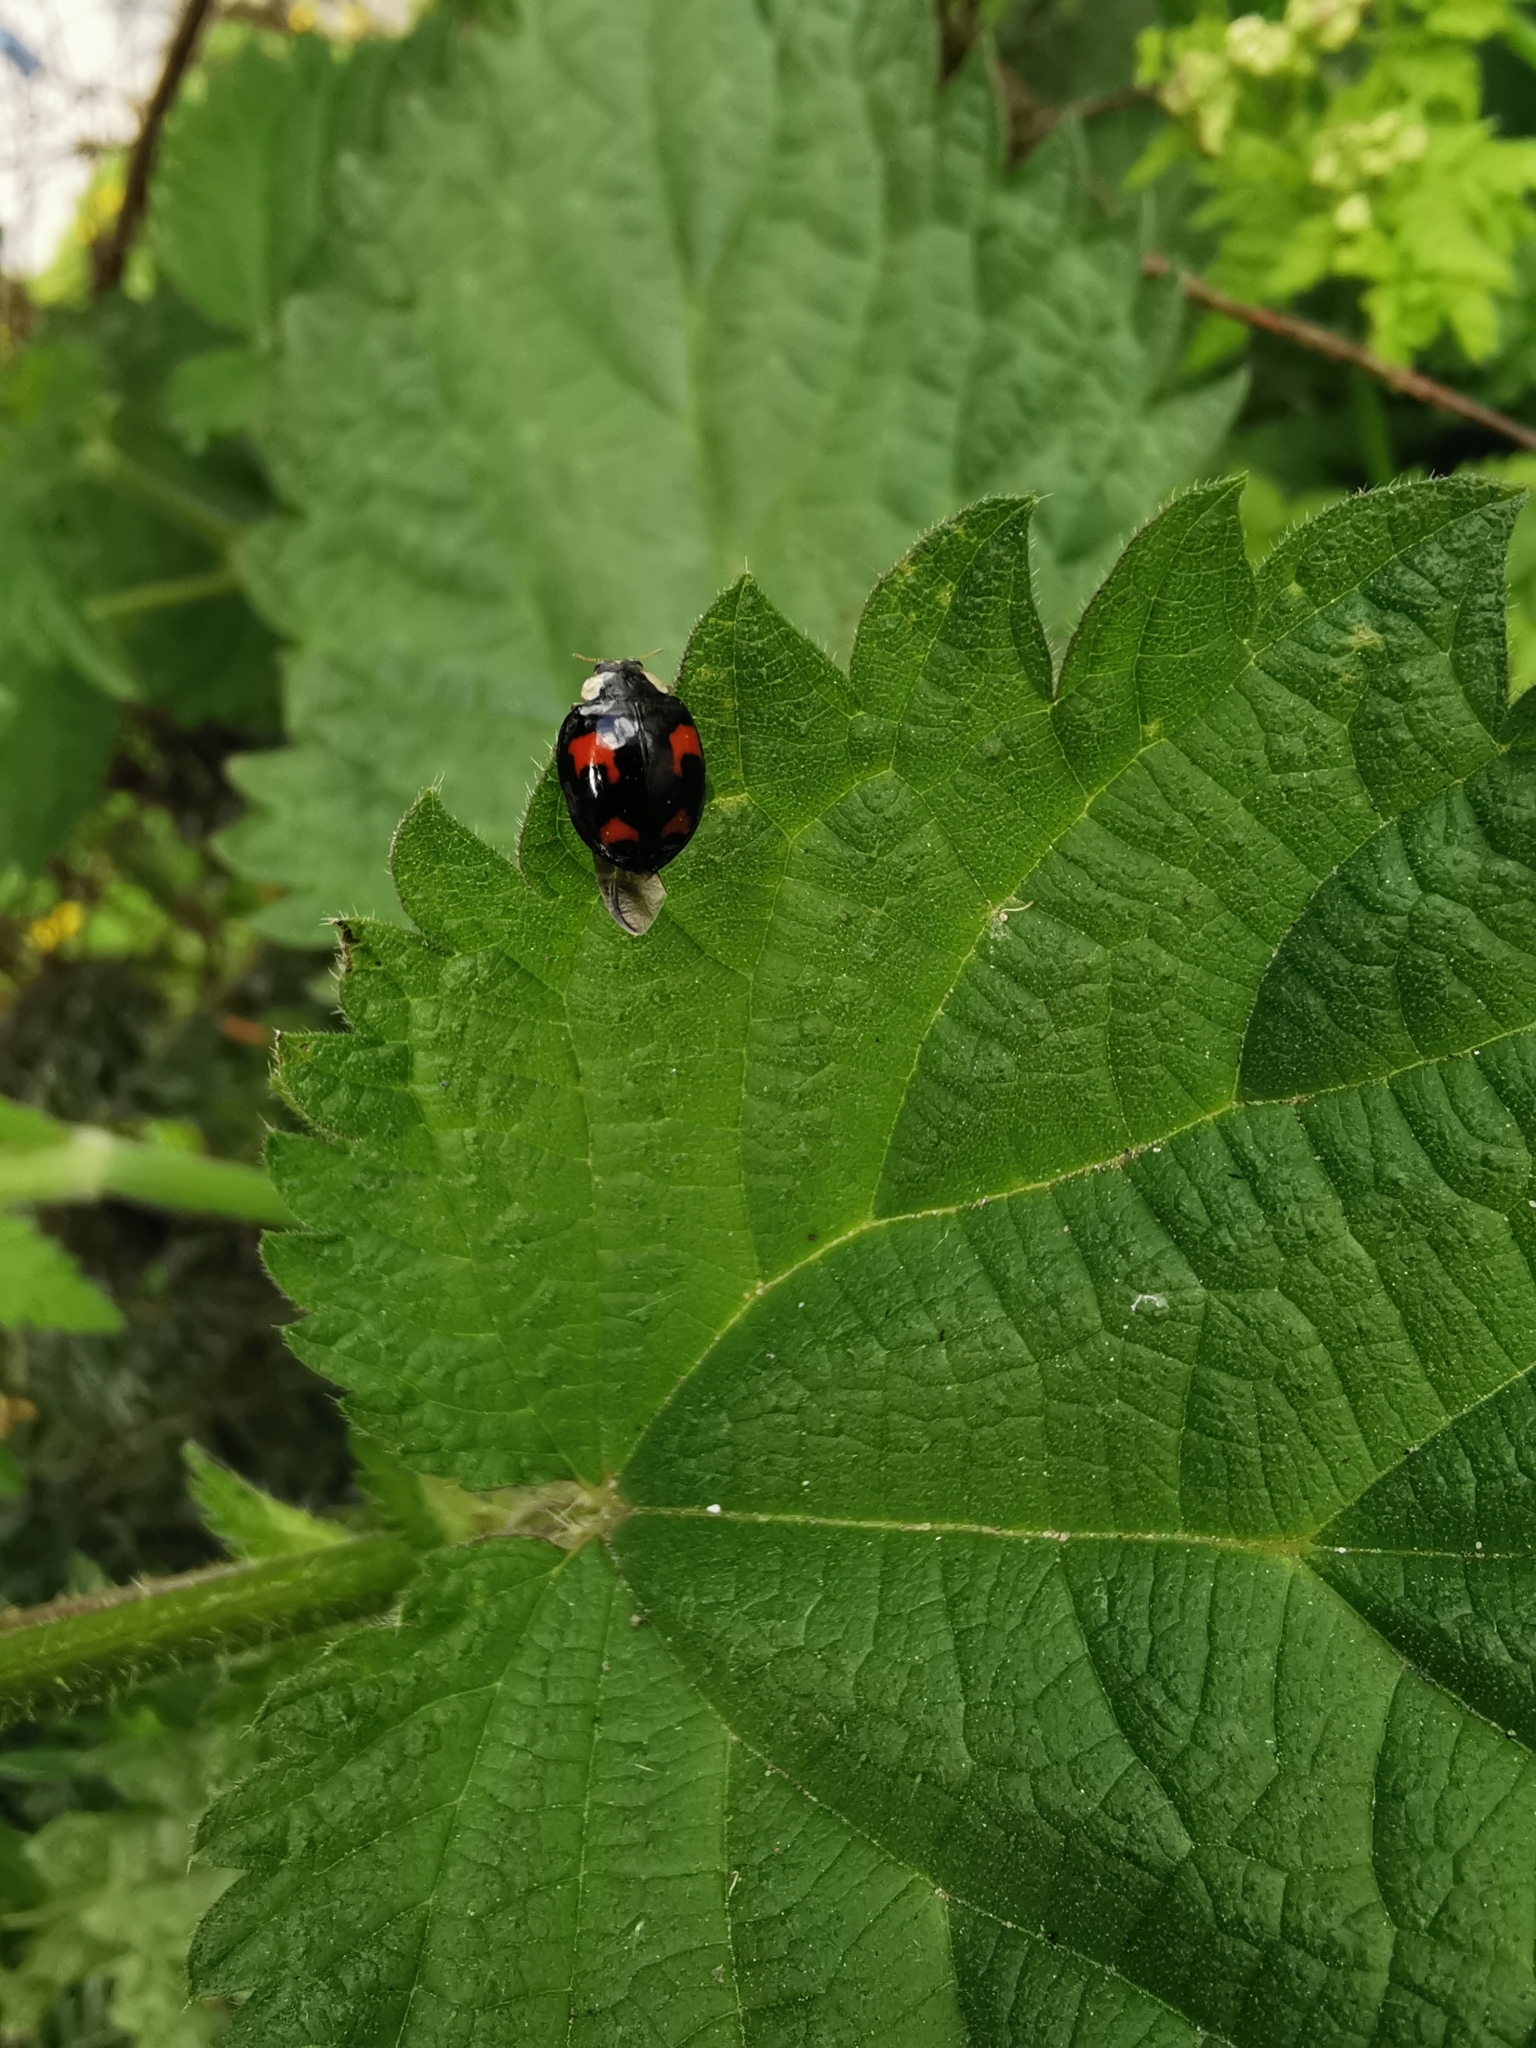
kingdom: Animalia
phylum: Arthropoda
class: Insecta
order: Coleoptera
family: Coccinellidae
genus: Harmonia
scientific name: Harmonia axyridis
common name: Harlequin ladybird
